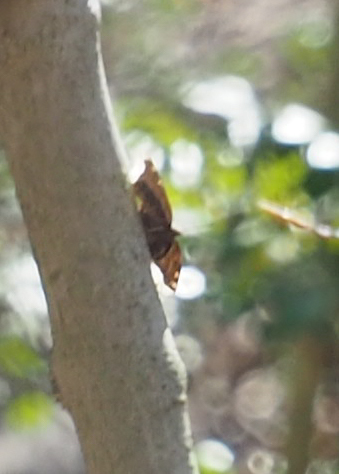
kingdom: Animalia
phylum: Arthropoda
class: Insecta
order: Lepidoptera
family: Nymphalidae
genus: Nymphalis
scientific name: Nymphalis antiopa
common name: Camberwell beauty
